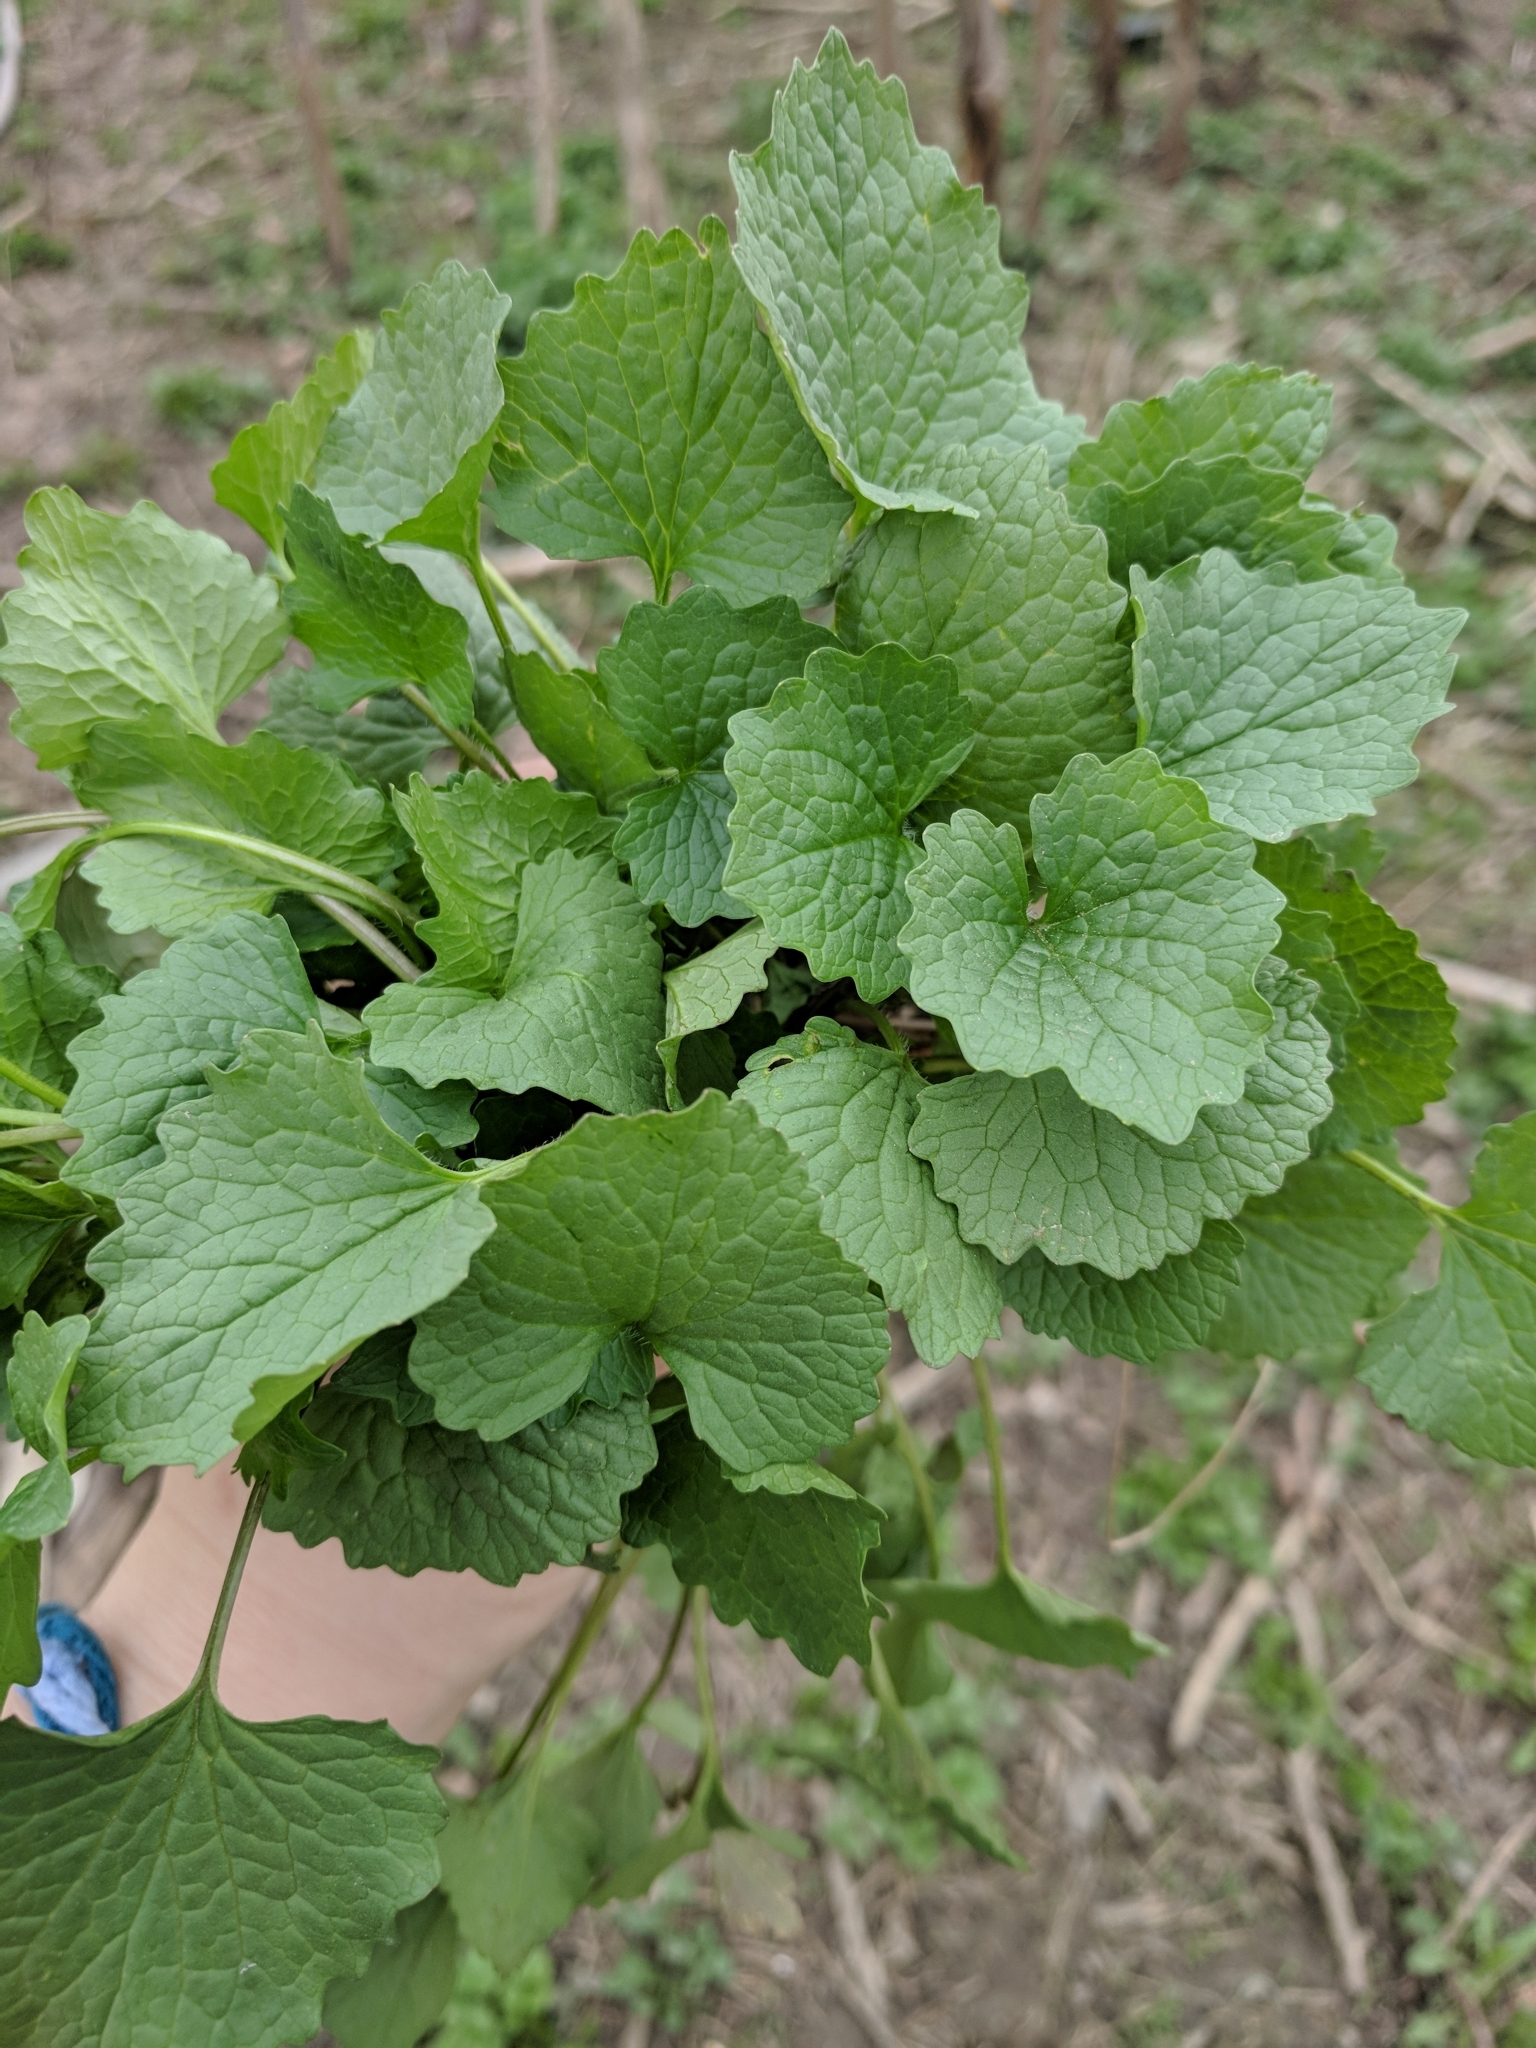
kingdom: Plantae
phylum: Tracheophyta
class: Magnoliopsida
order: Brassicales
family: Brassicaceae
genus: Alliaria
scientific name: Alliaria petiolata
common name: Garlic mustard
